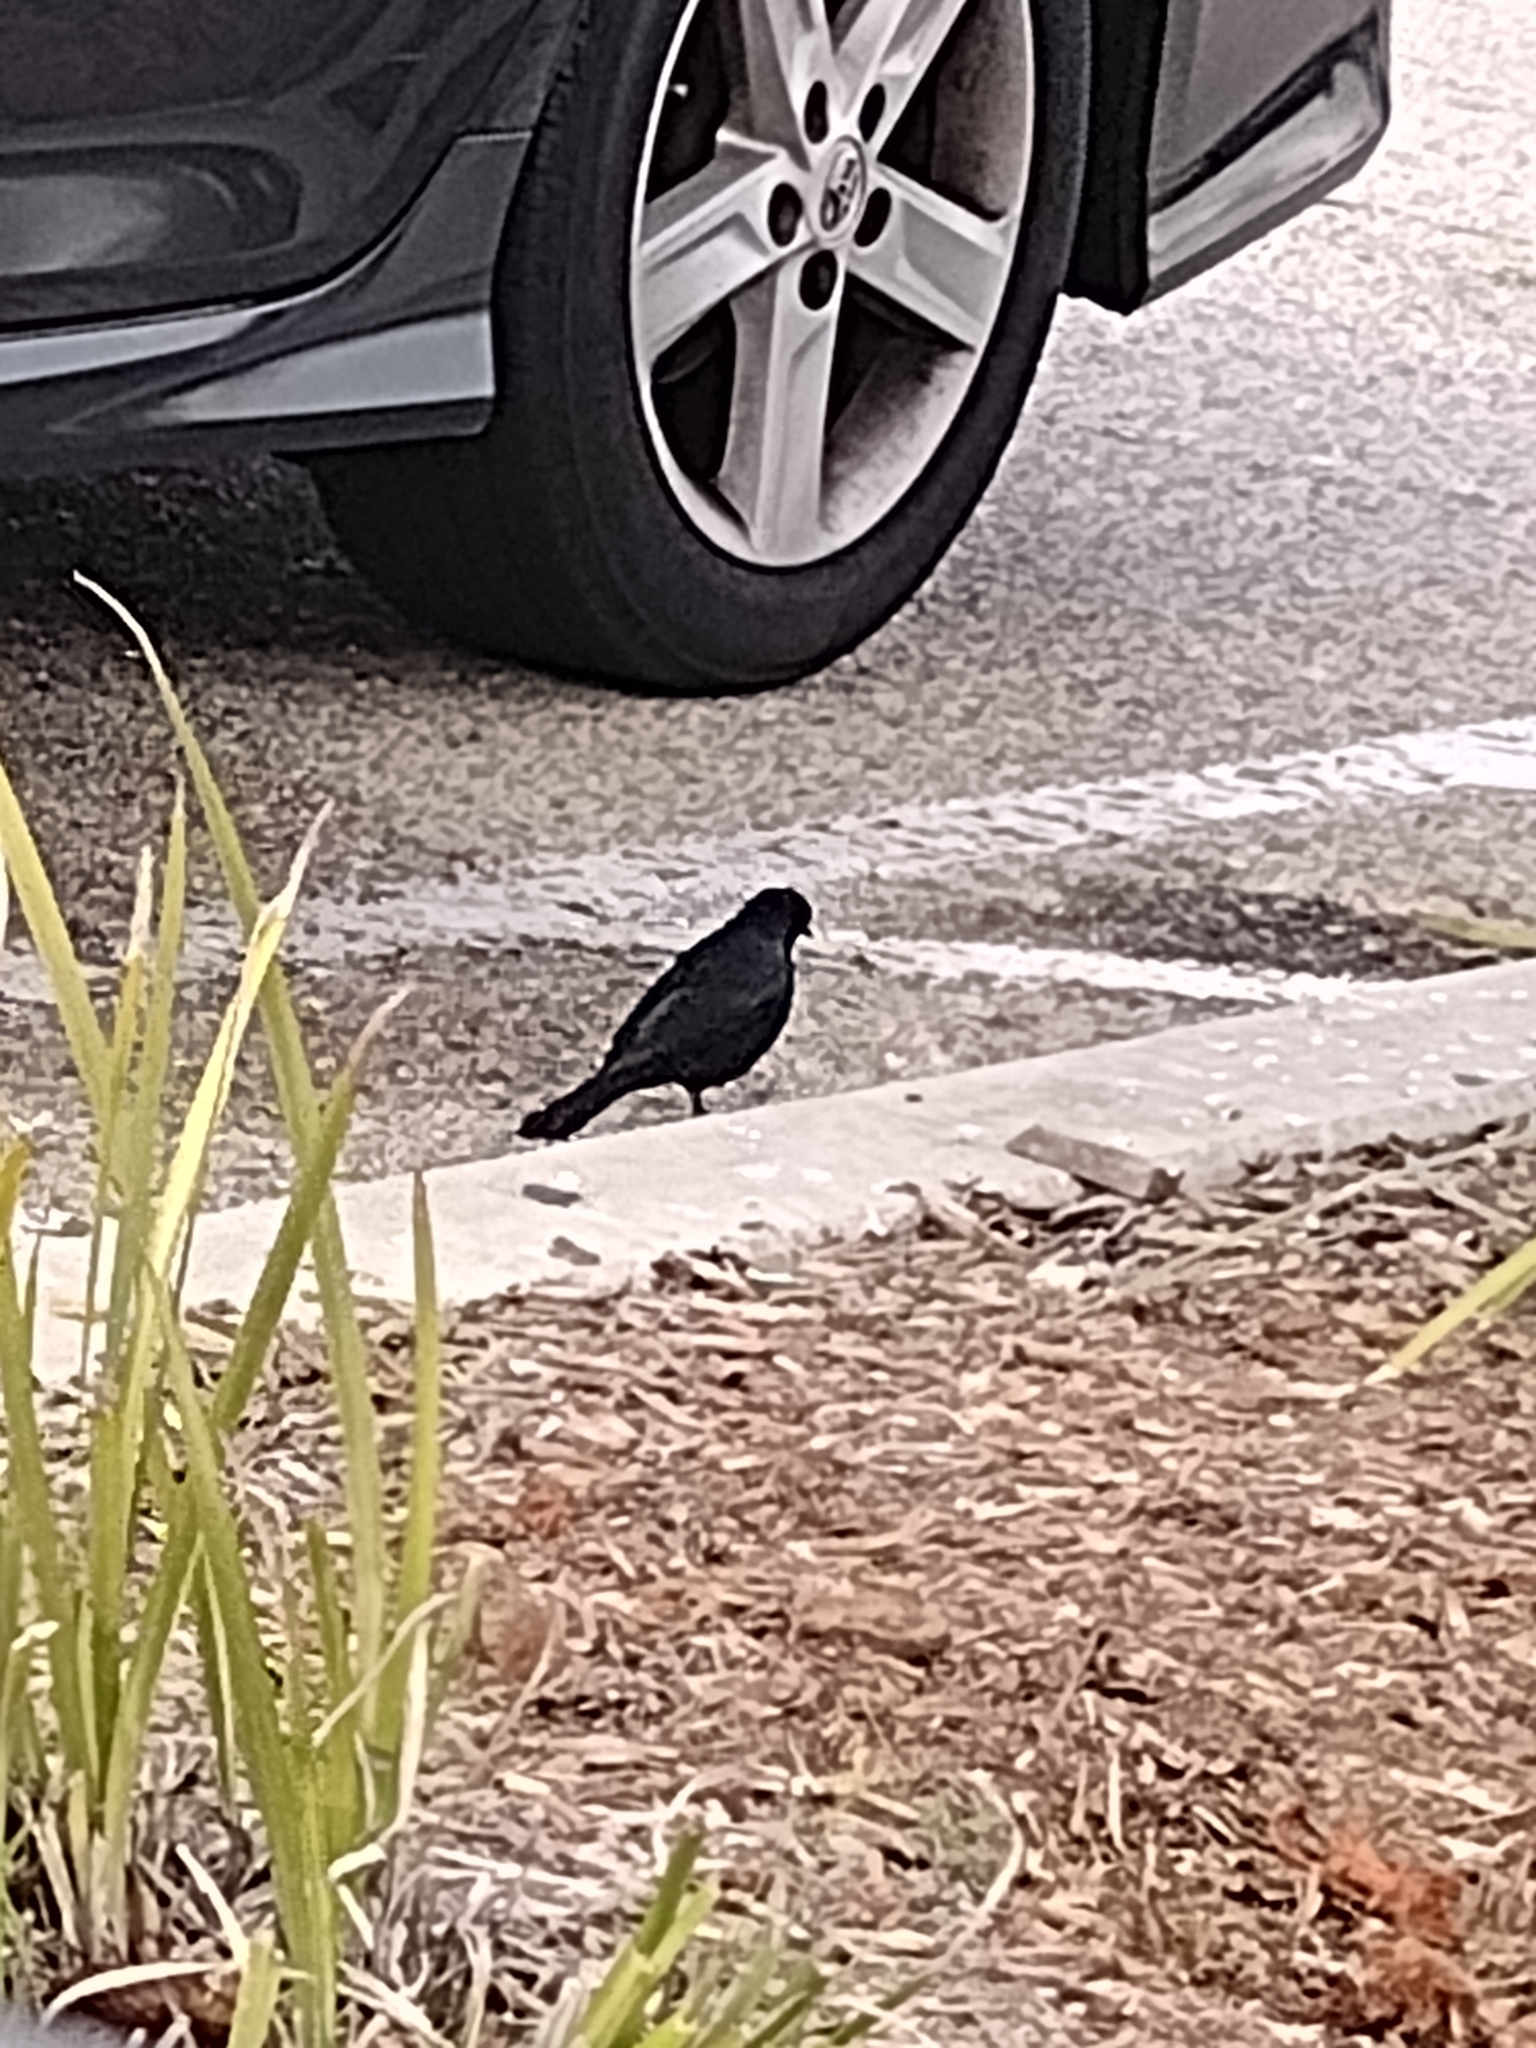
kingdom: Animalia
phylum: Chordata
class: Aves
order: Passeriformes
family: Icteridae
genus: Euphagus
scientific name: Euphagus cyanocephalus
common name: Brewer's blackbird
